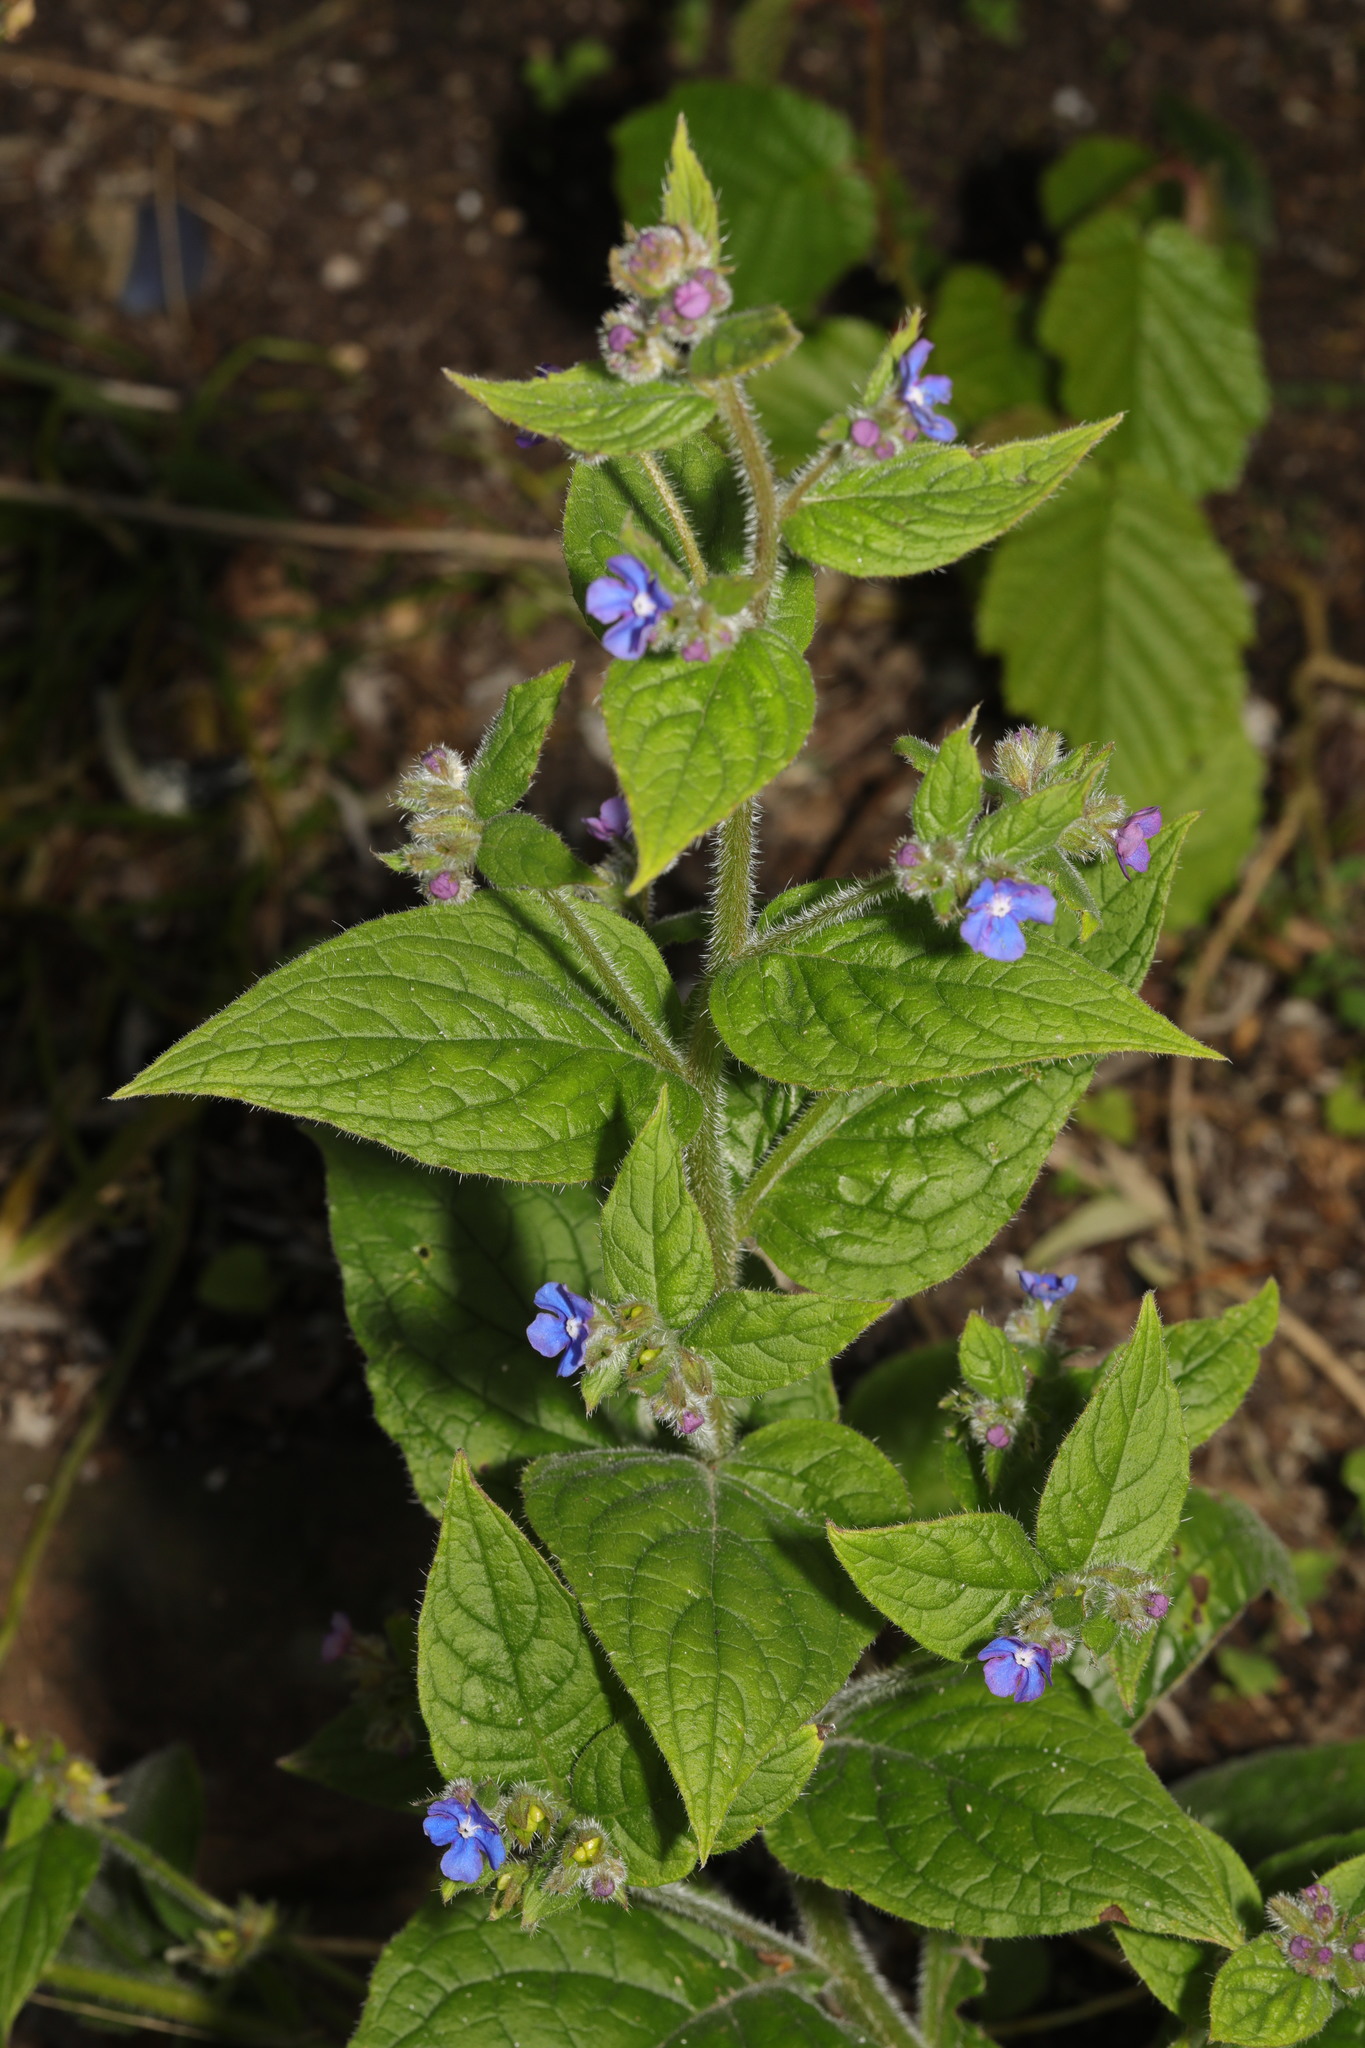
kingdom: Plantae
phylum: Tracheophyta
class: Magnoliopsida
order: Boraginales
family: Boraginaceae
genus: Pentaglottis
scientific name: Pentaglottis sempervirens
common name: Green alkanet
